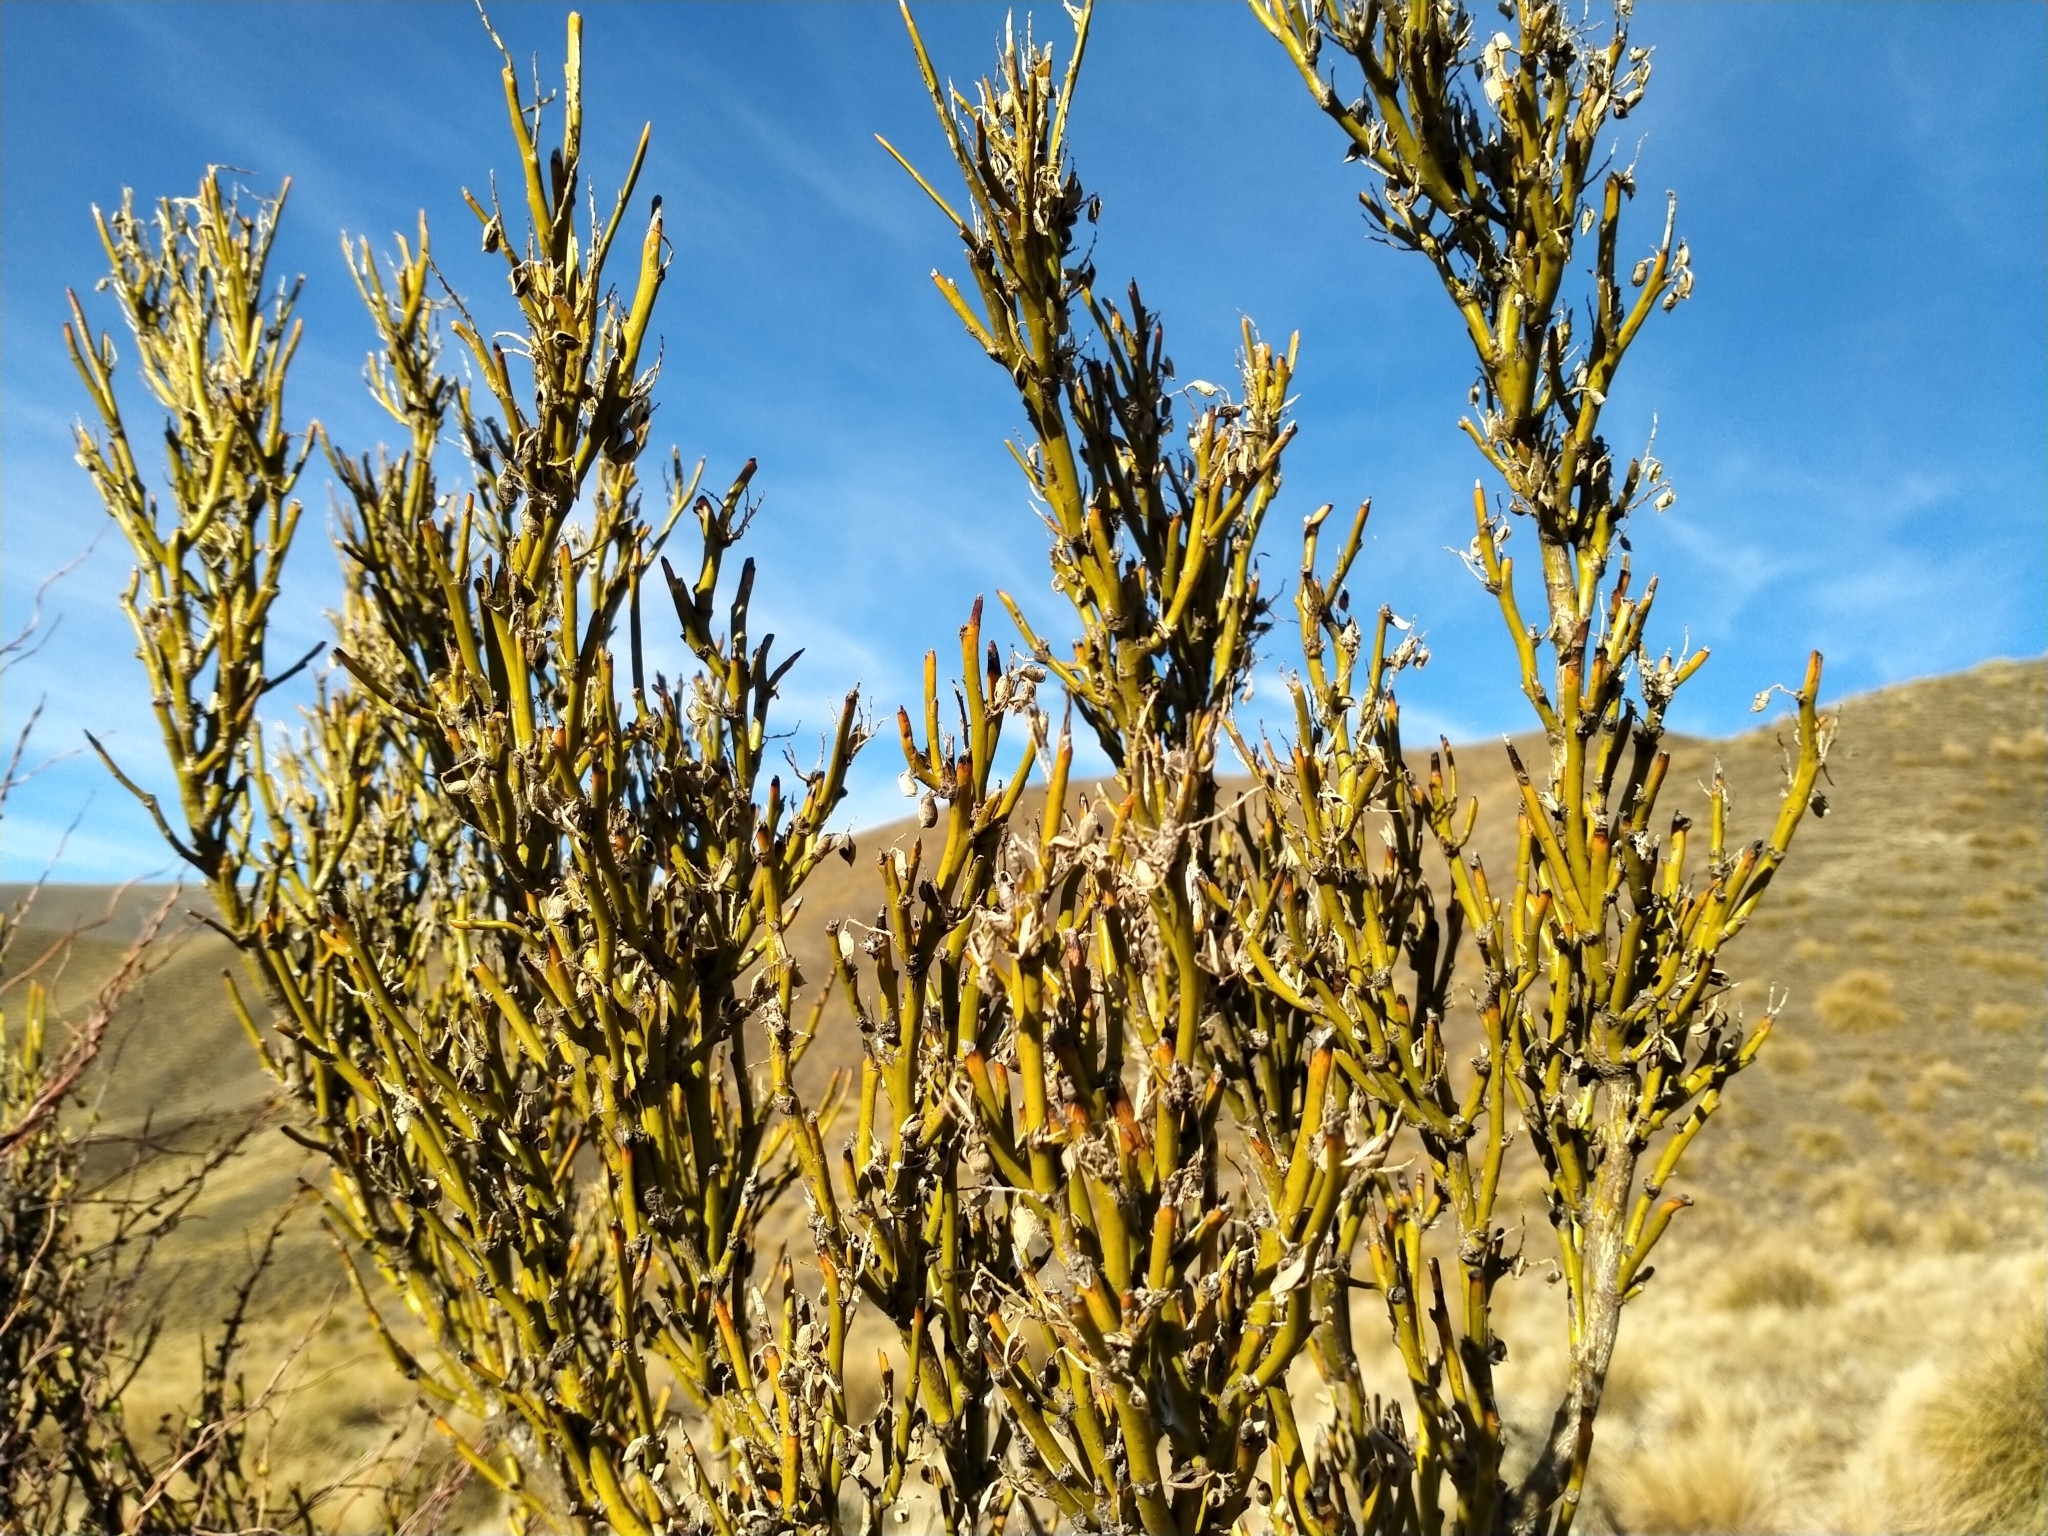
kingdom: Plantae
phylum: Tracheophyta
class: Magnoliopsida
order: Fabales
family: Fabaceae
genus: Carmichaelia
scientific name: Carmichaelia petriei
